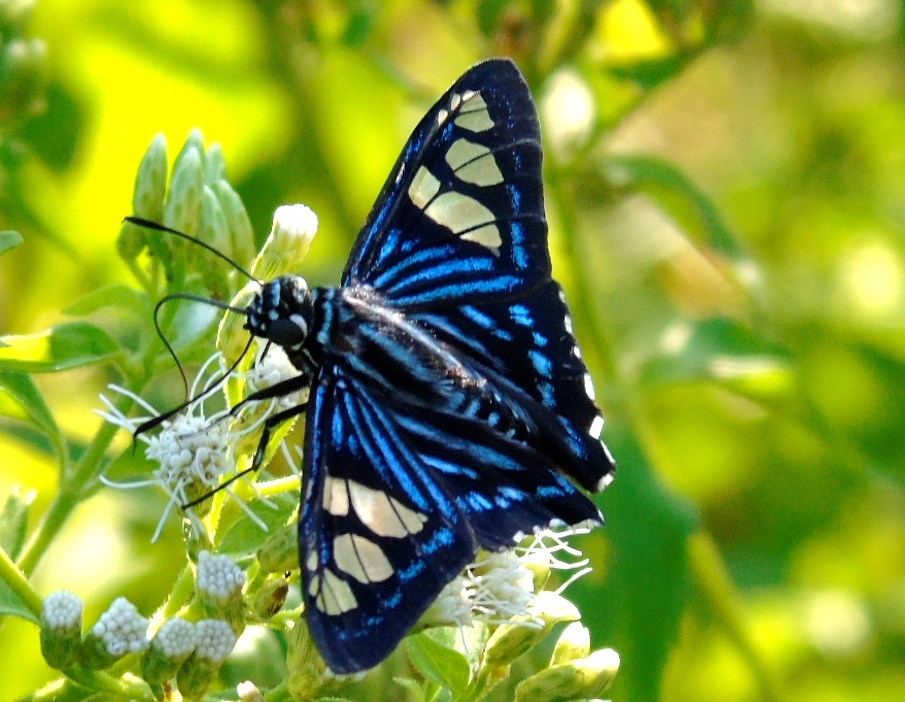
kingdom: Animalia
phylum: Arthropoda
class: Insecta
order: Lepidoptera
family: Hesperiidae
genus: Phocides
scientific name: Phocides pigmalion
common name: Mangrove skipper
